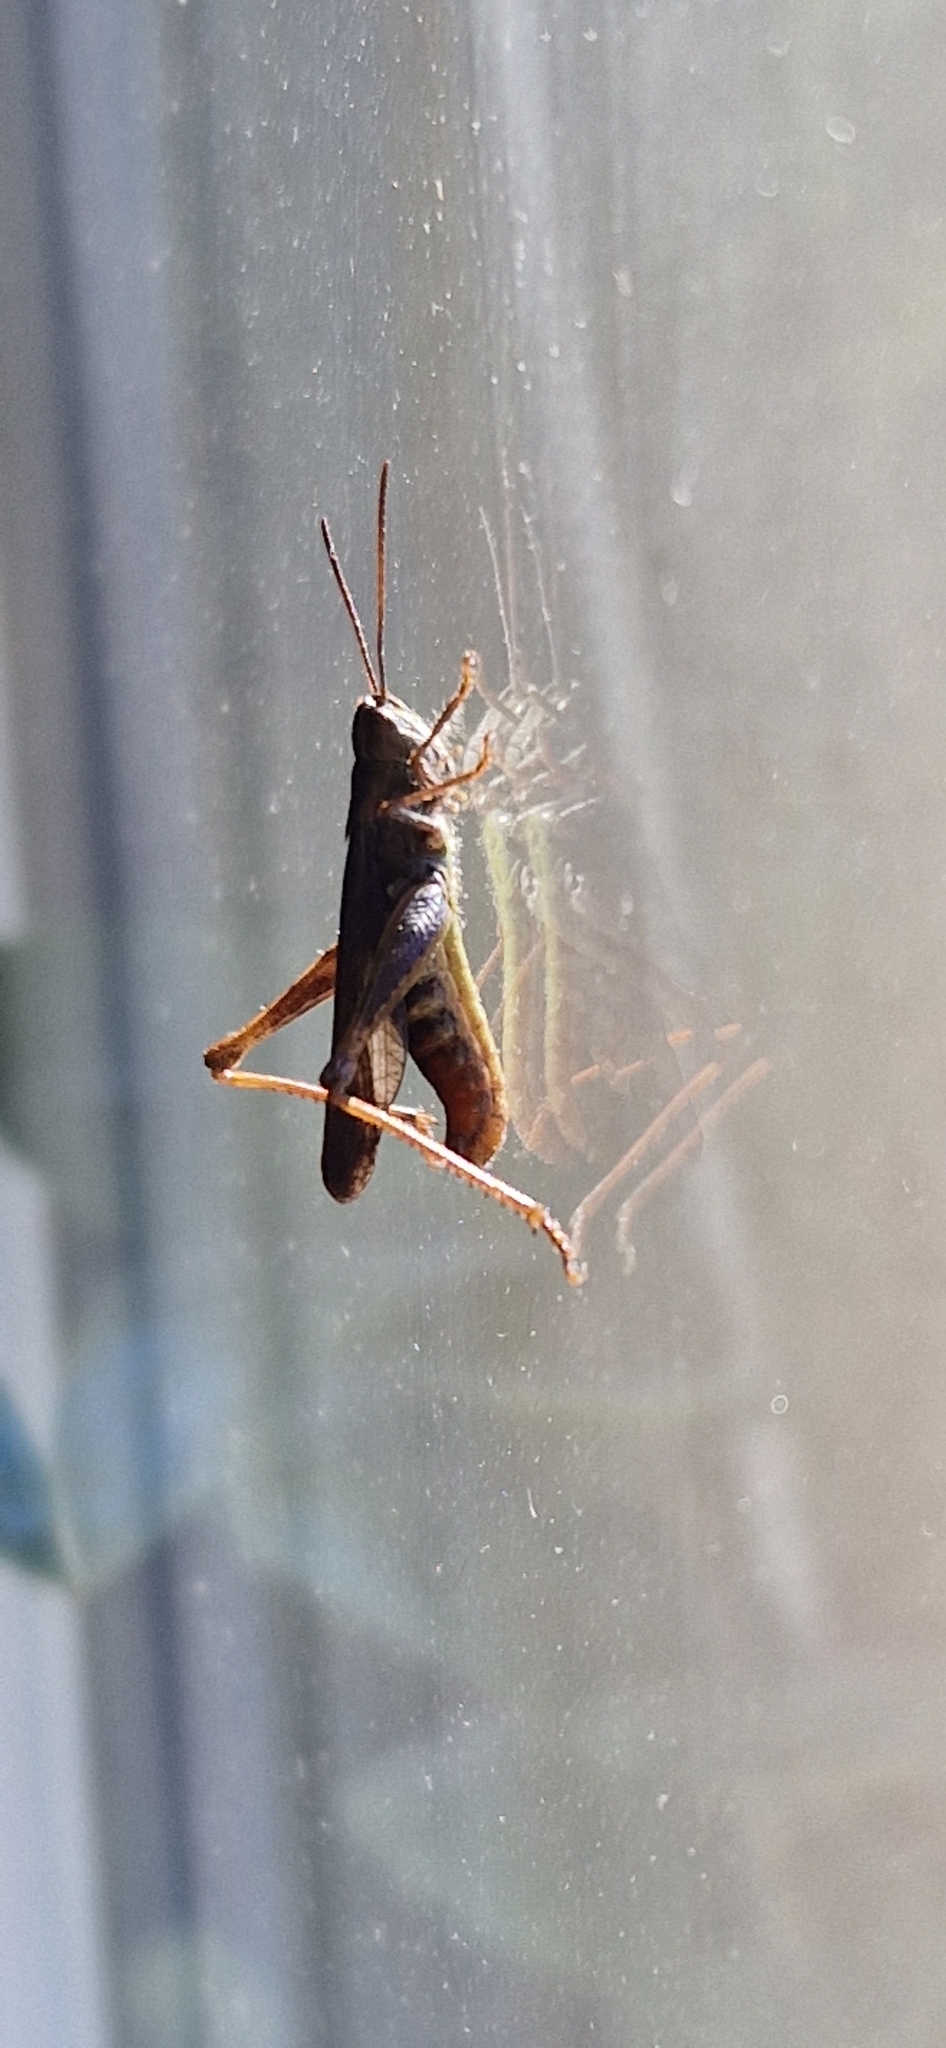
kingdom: Animalia
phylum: Arthropoda
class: Insecta
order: Orthoptera
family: Acrididae
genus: Chorthippus
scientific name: Chorthippus biguttulus
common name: Bow-winged grasshopper
